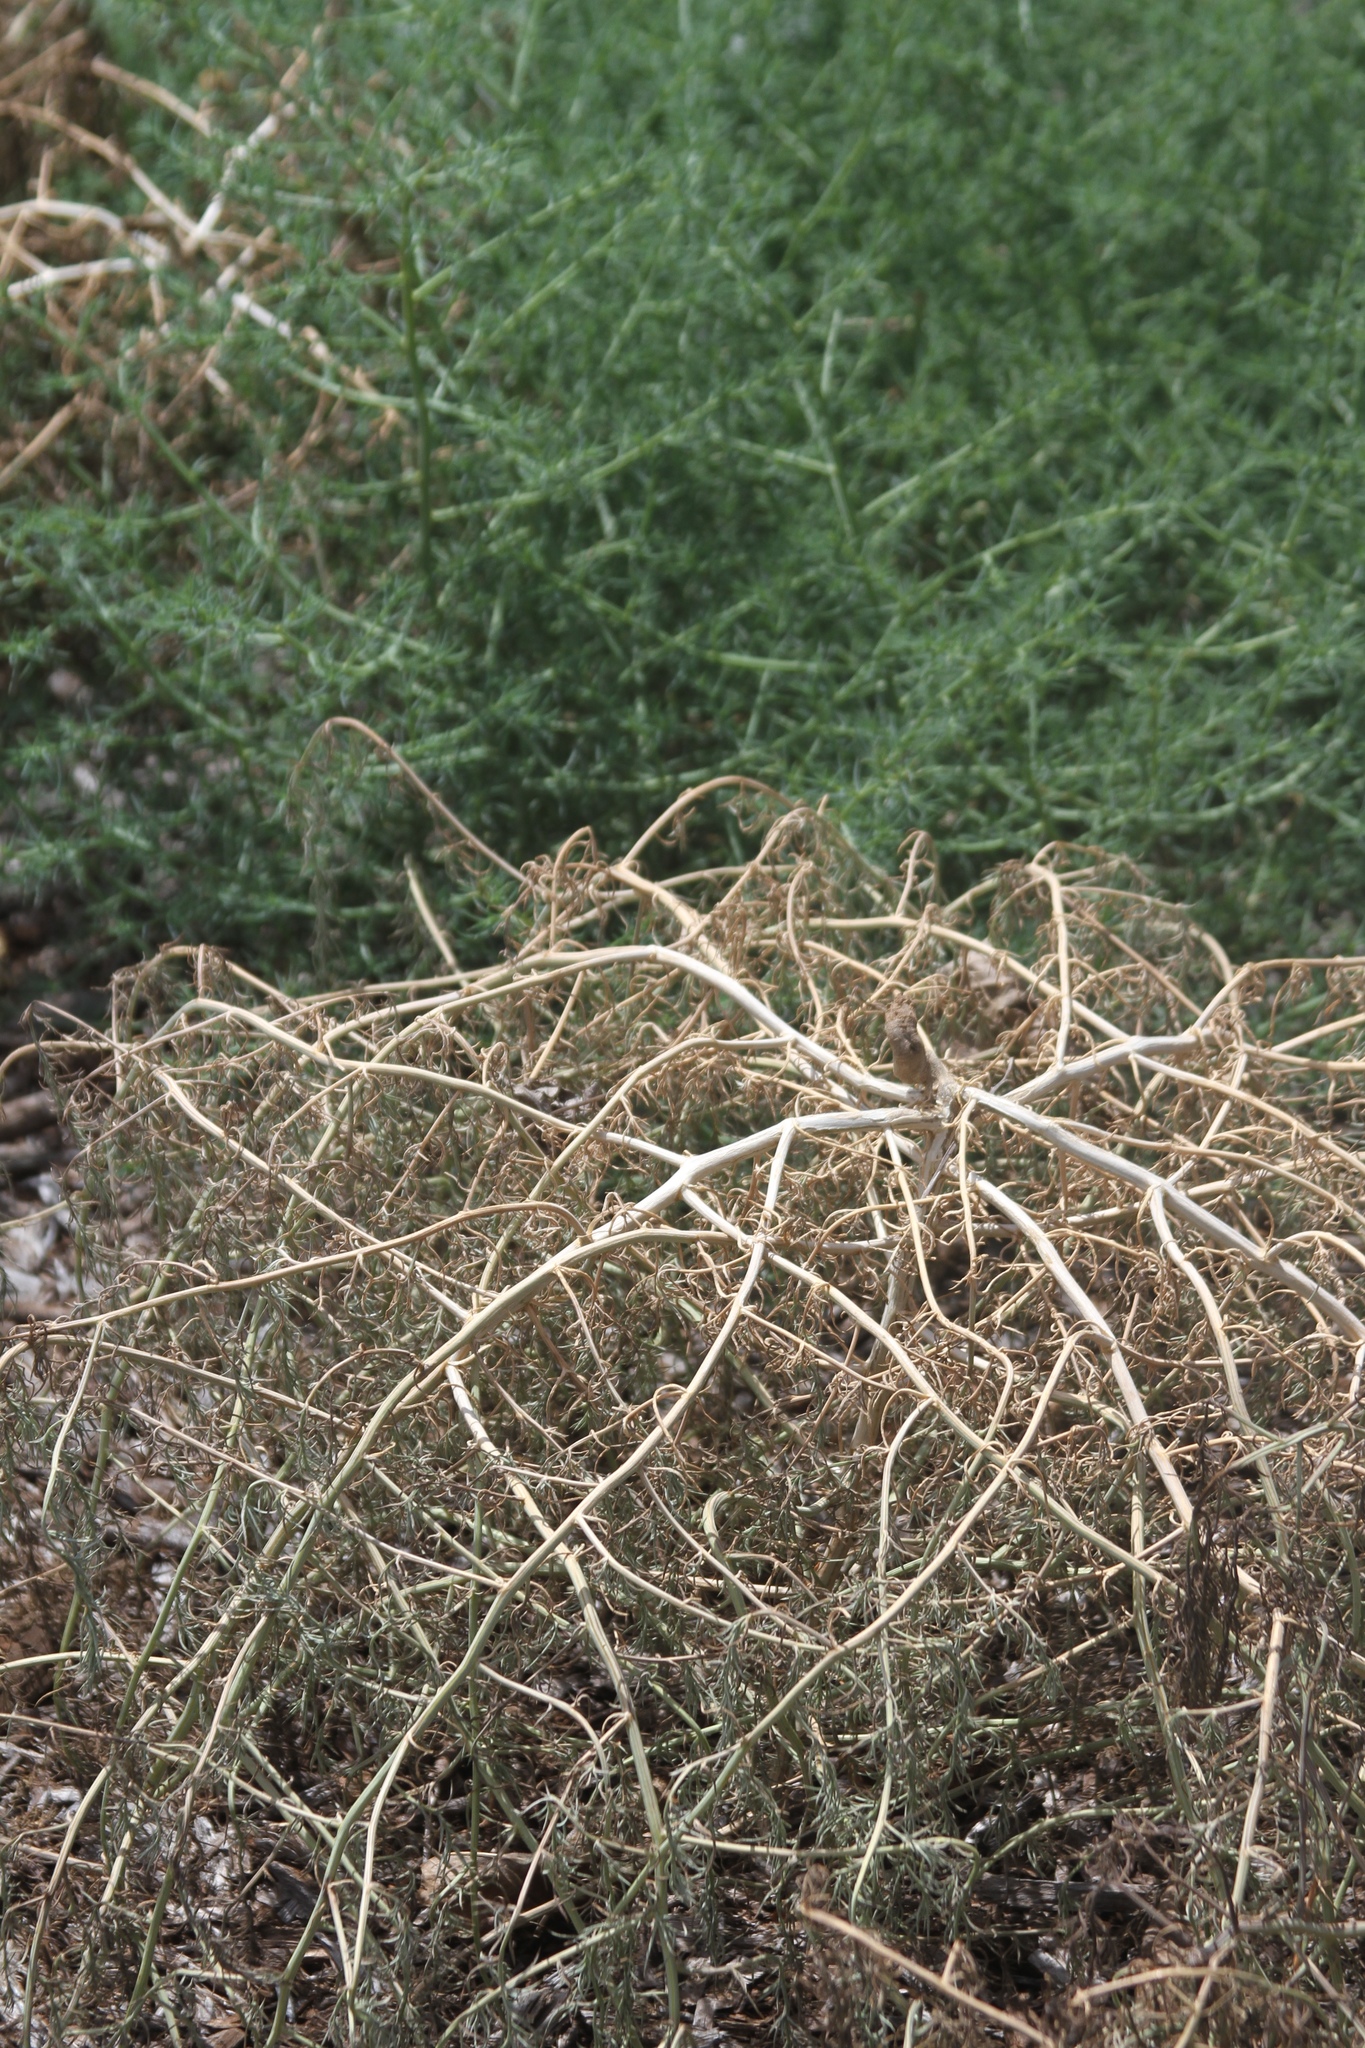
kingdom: Plantae
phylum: Tracheophyta
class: Magnoliopsida
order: Caryophyllales
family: Amaranthaceae
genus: Salsola
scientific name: Salsola tragus
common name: Prickly russian thistle
